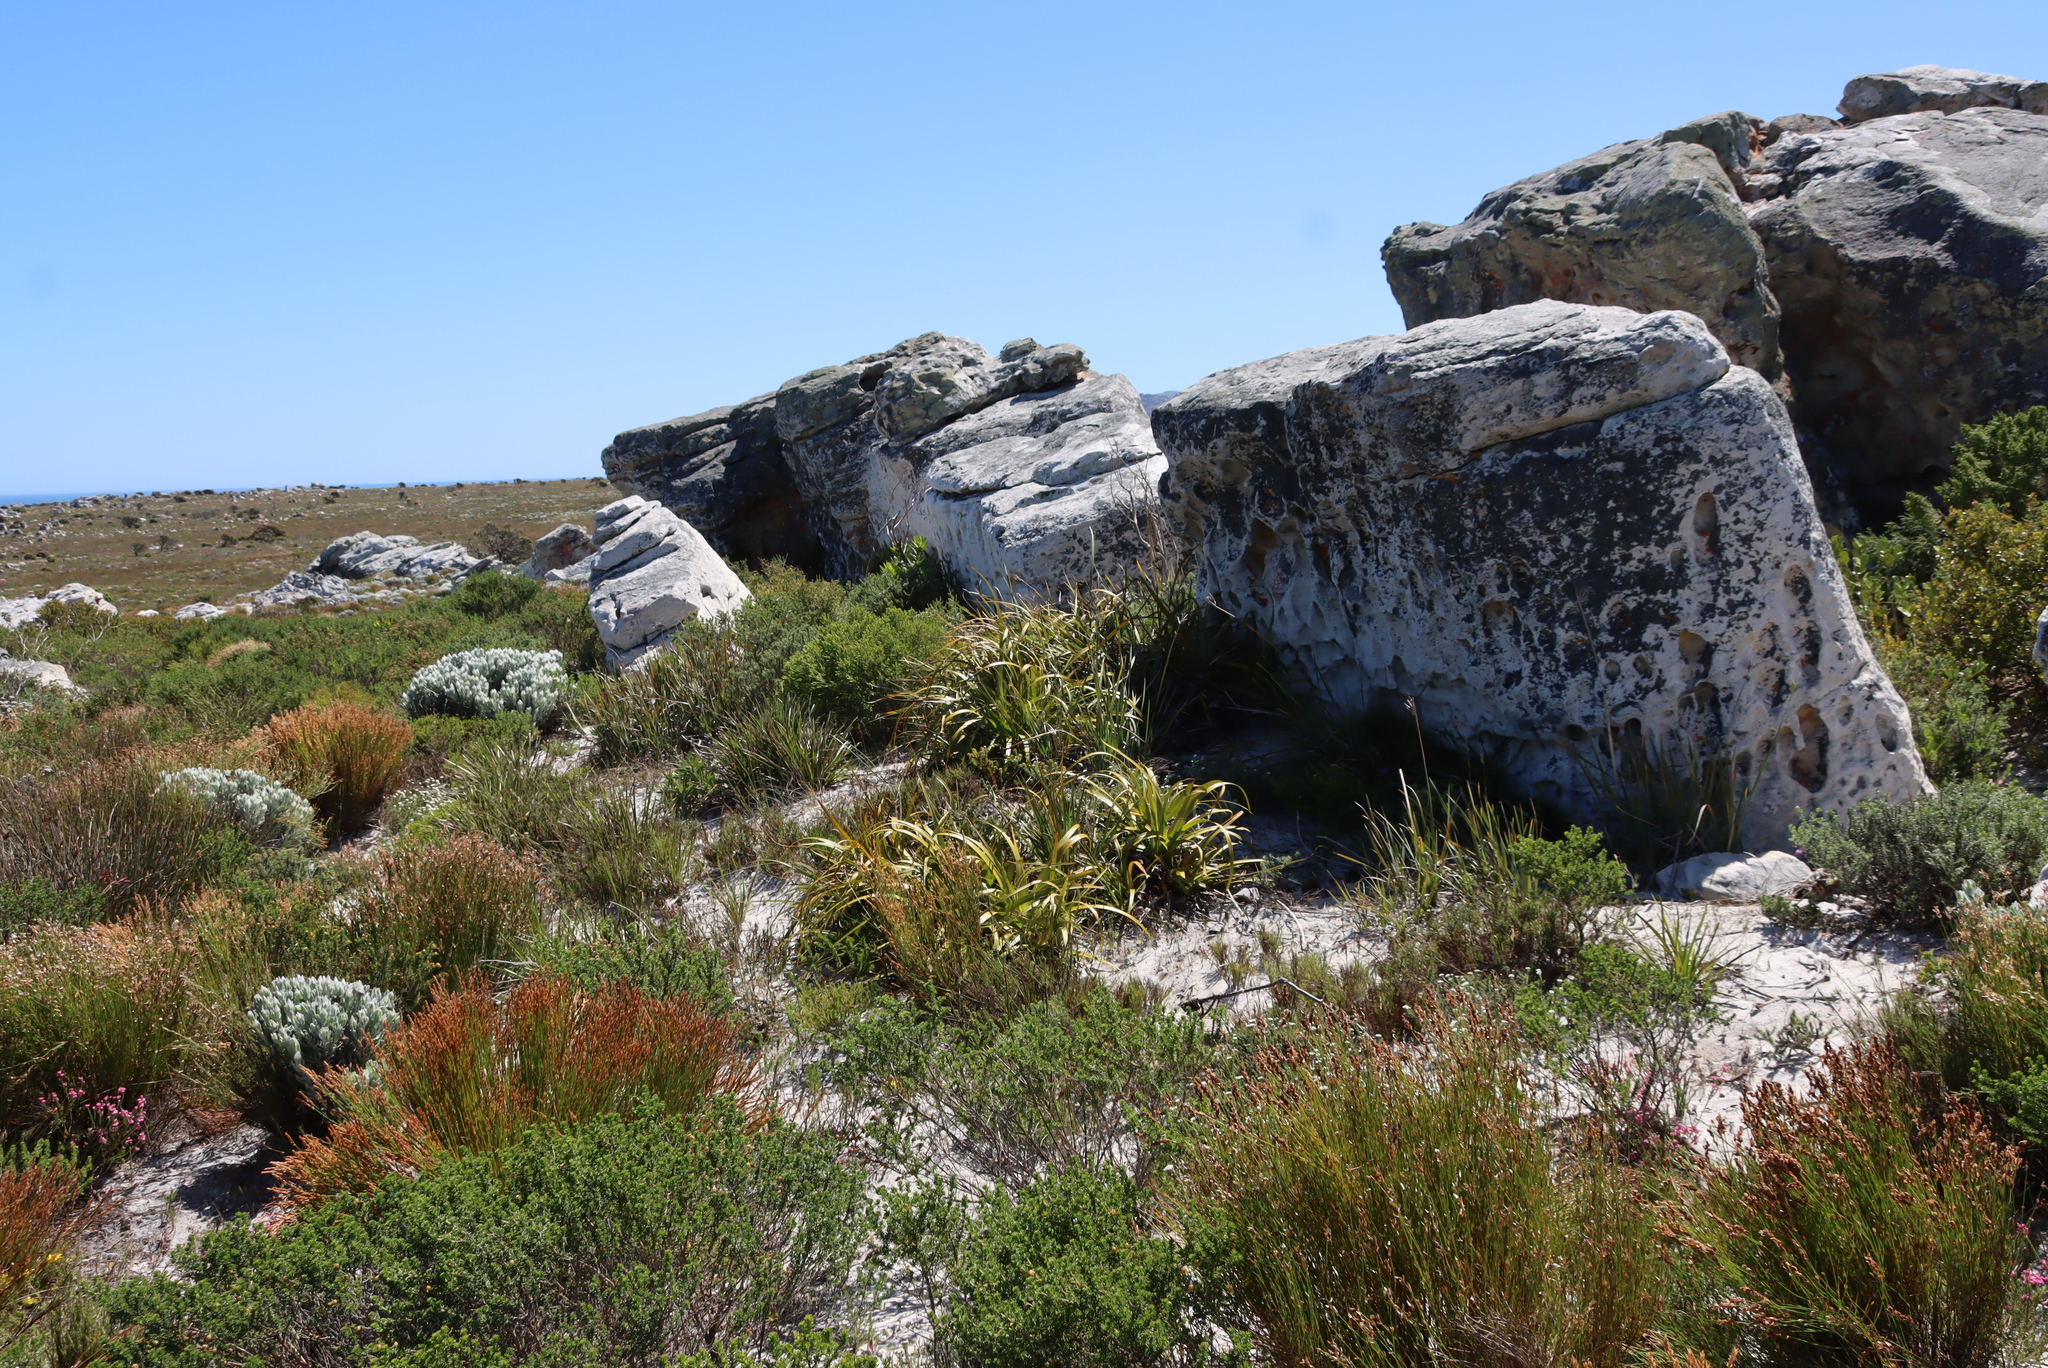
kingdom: Plantae
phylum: Tracheophyta
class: Liliopsida
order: Poales
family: Cyperaceae
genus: Tetraria
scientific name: Tetraria thermalis
